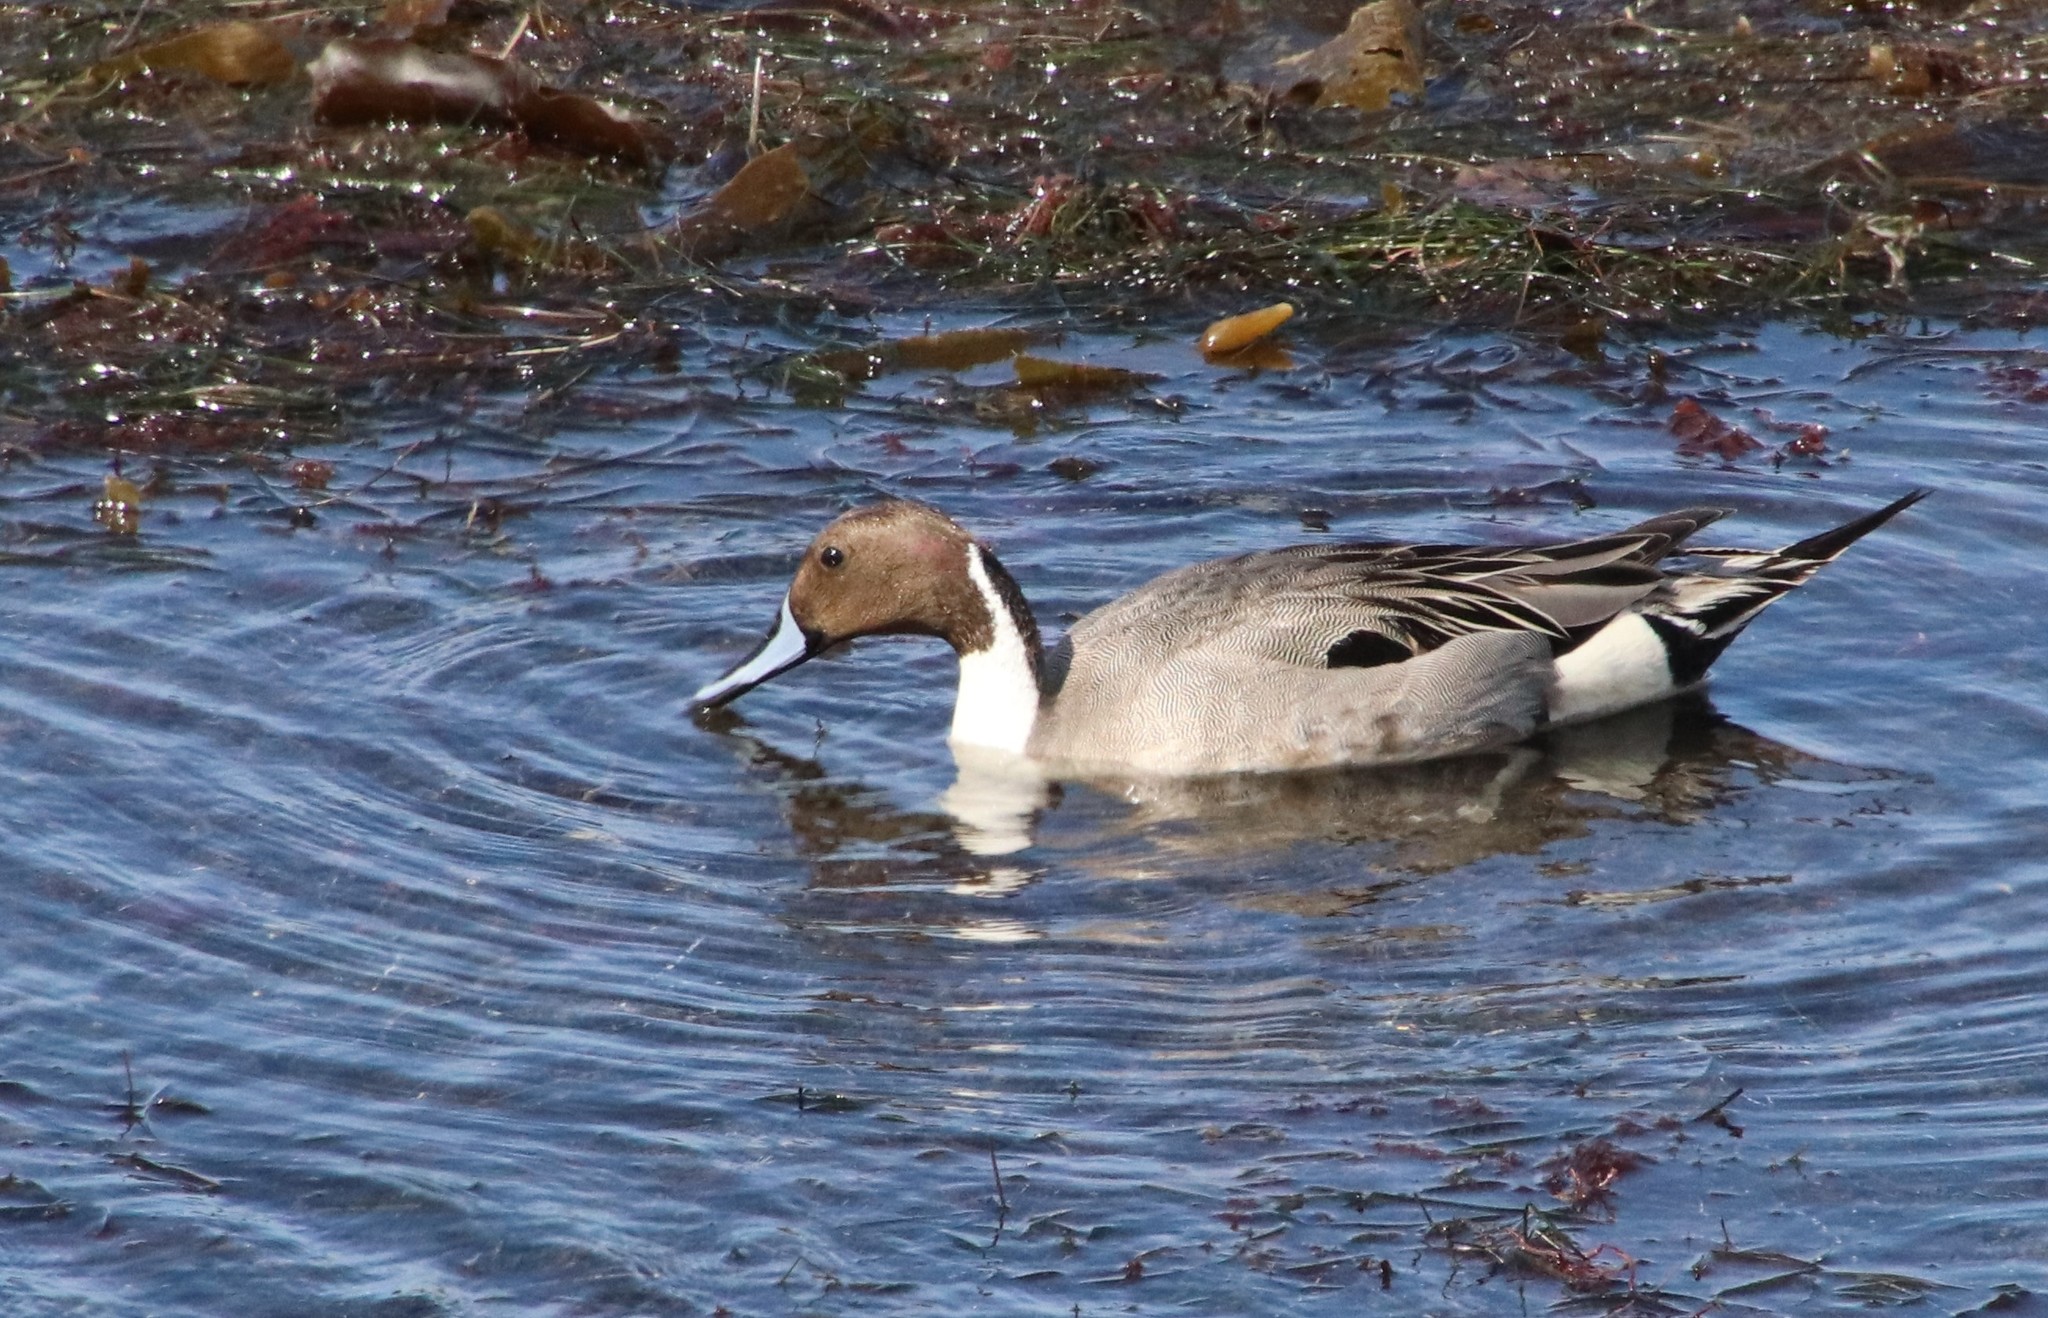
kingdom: Animalia
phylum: Chordata
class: Aves
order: Anseriformes
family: Anatidae
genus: Anas
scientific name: Anas acuta
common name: Northern pintail
